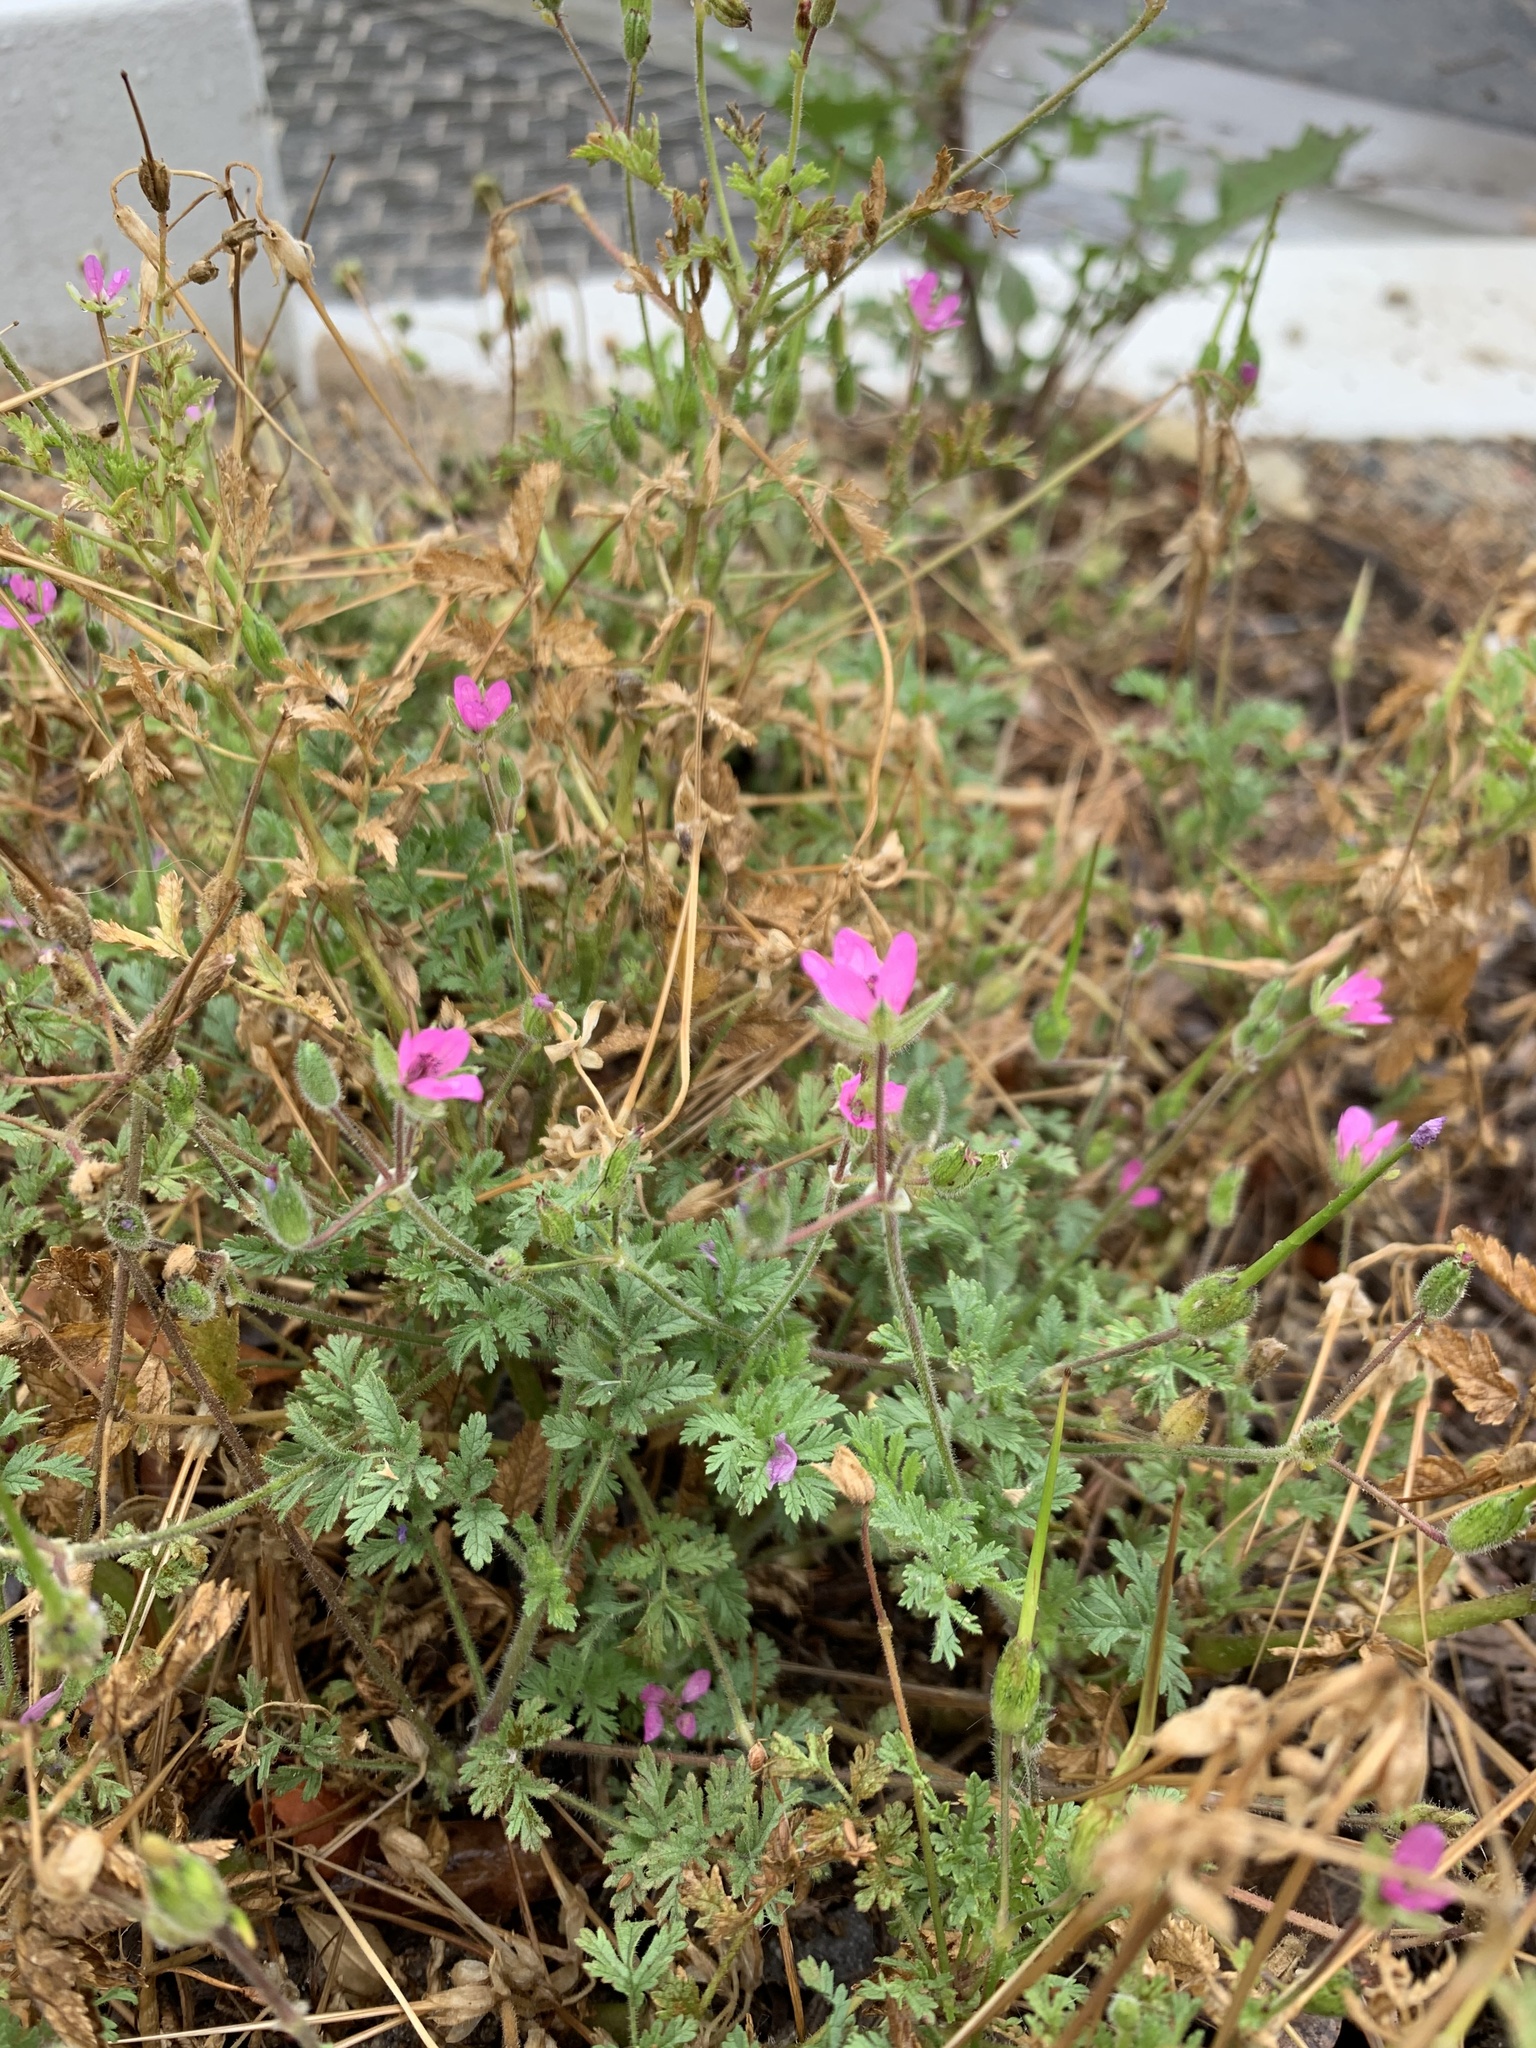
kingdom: Plantae
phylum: Tracheophyta
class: Magnoliopsida
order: Geraniales
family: Geraniaceae
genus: Erodium
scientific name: Erodium cicutarium
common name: Common stork's-bill
